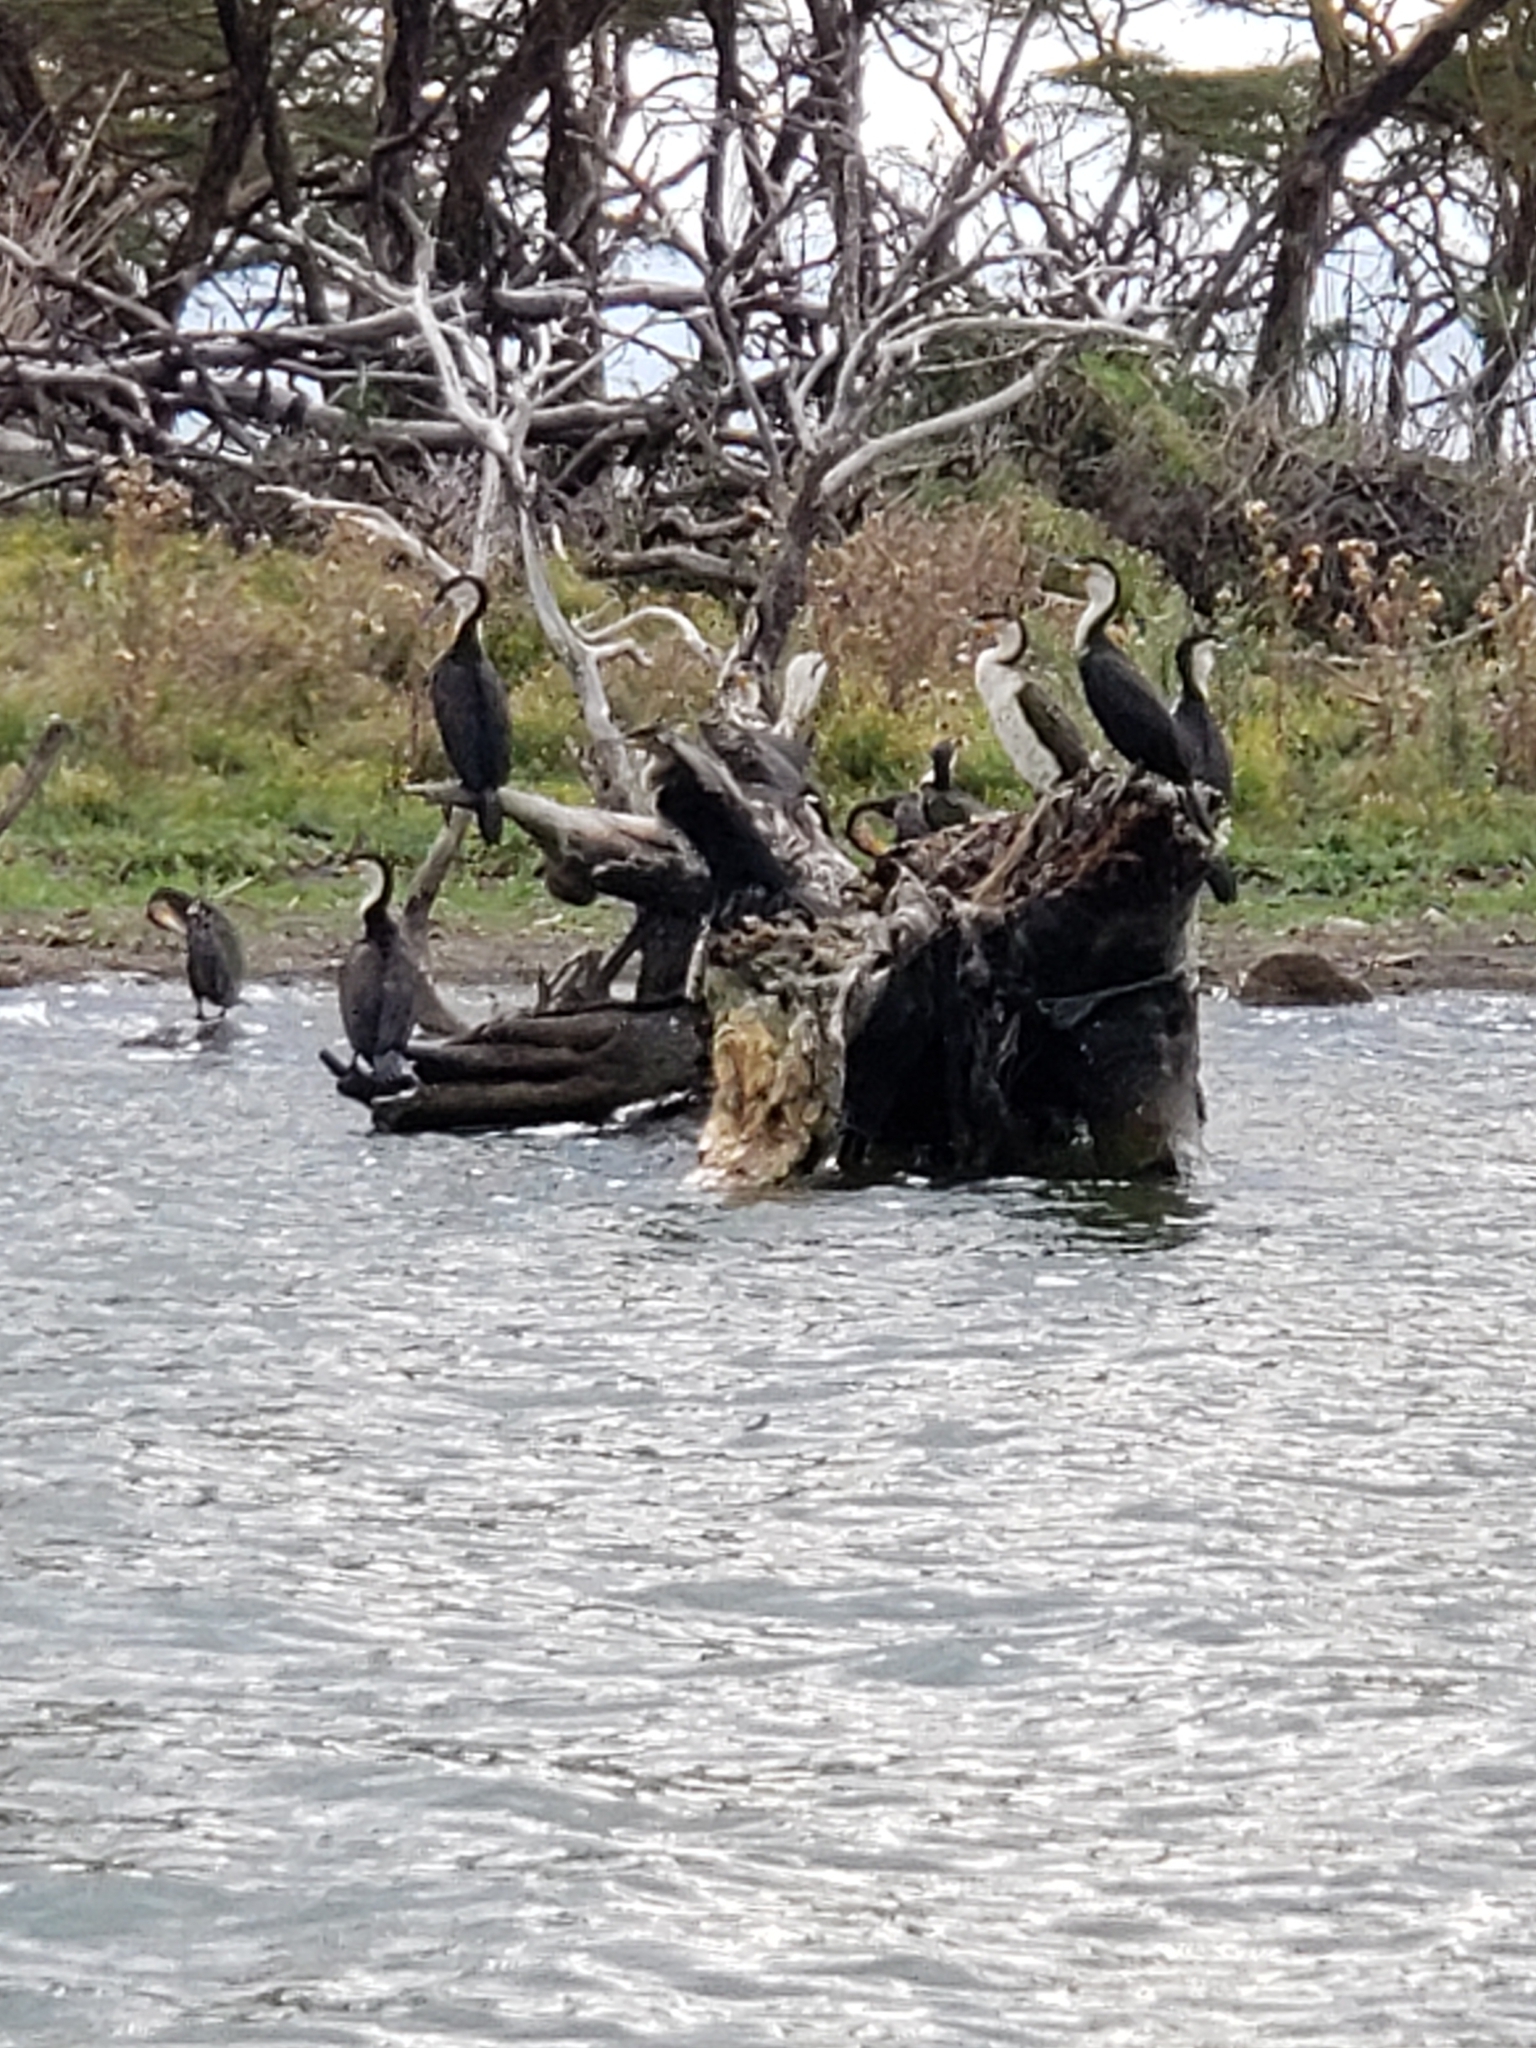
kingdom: Animalia
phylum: Chordata
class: Aves
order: Suliformes
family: Phalacrocoracidae
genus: Phalacrocorax
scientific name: Phalacrocorax carbo
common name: Great cormorant
